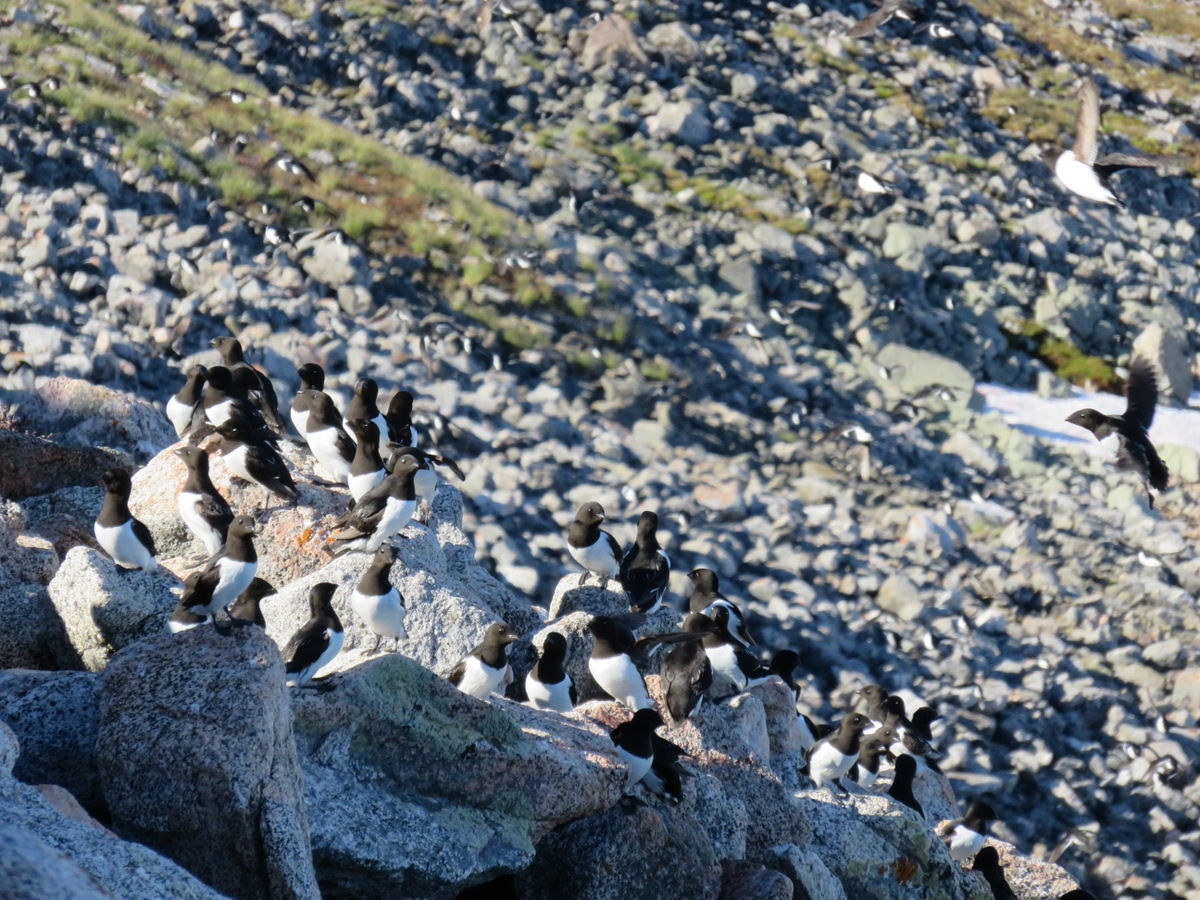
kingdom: Animalia
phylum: Chordata
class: Aves
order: Charadriiformes
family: Alcidae
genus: Alle
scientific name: Alle alle
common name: Little auk
